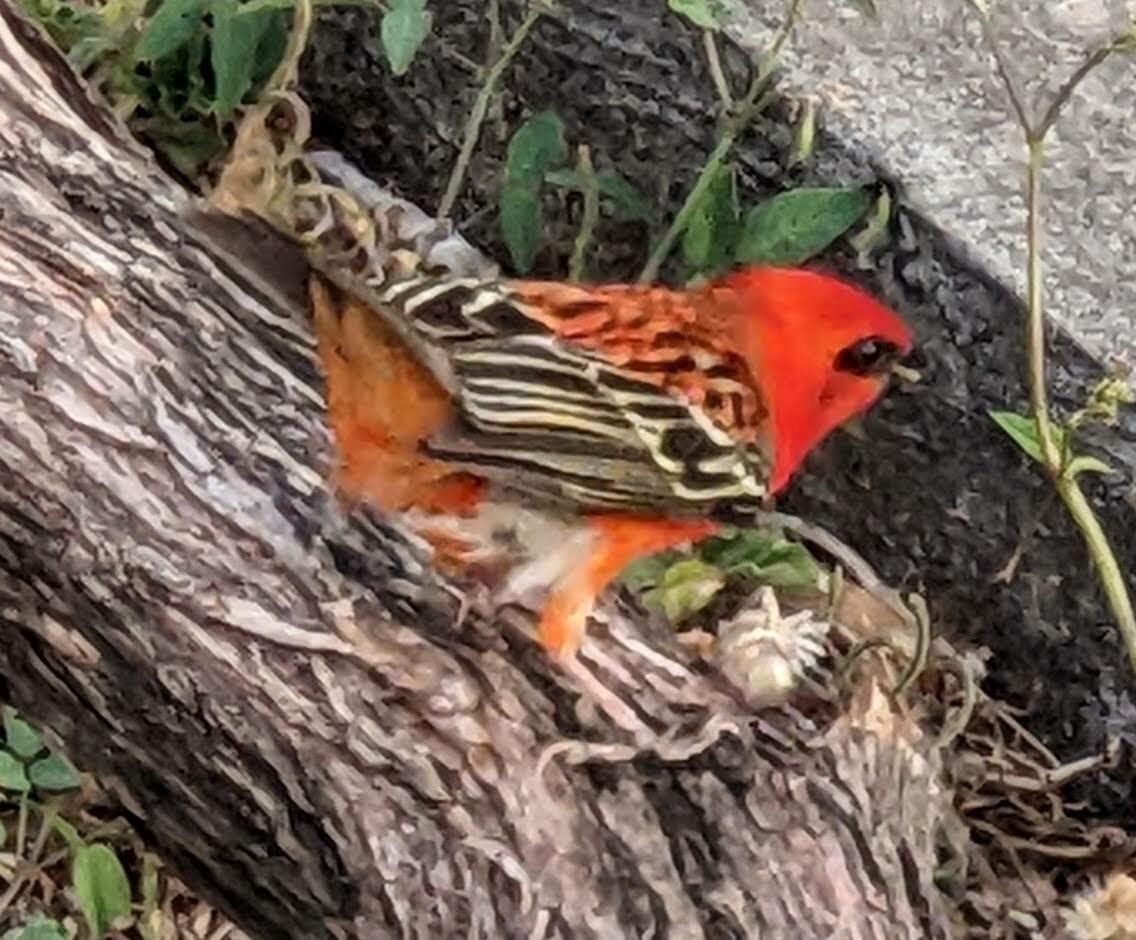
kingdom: Animalia
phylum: Chordata
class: Aves
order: Passeriformes
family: Ploceidae
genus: Foudia
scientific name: Foudia madagascariensis
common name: Red fody
